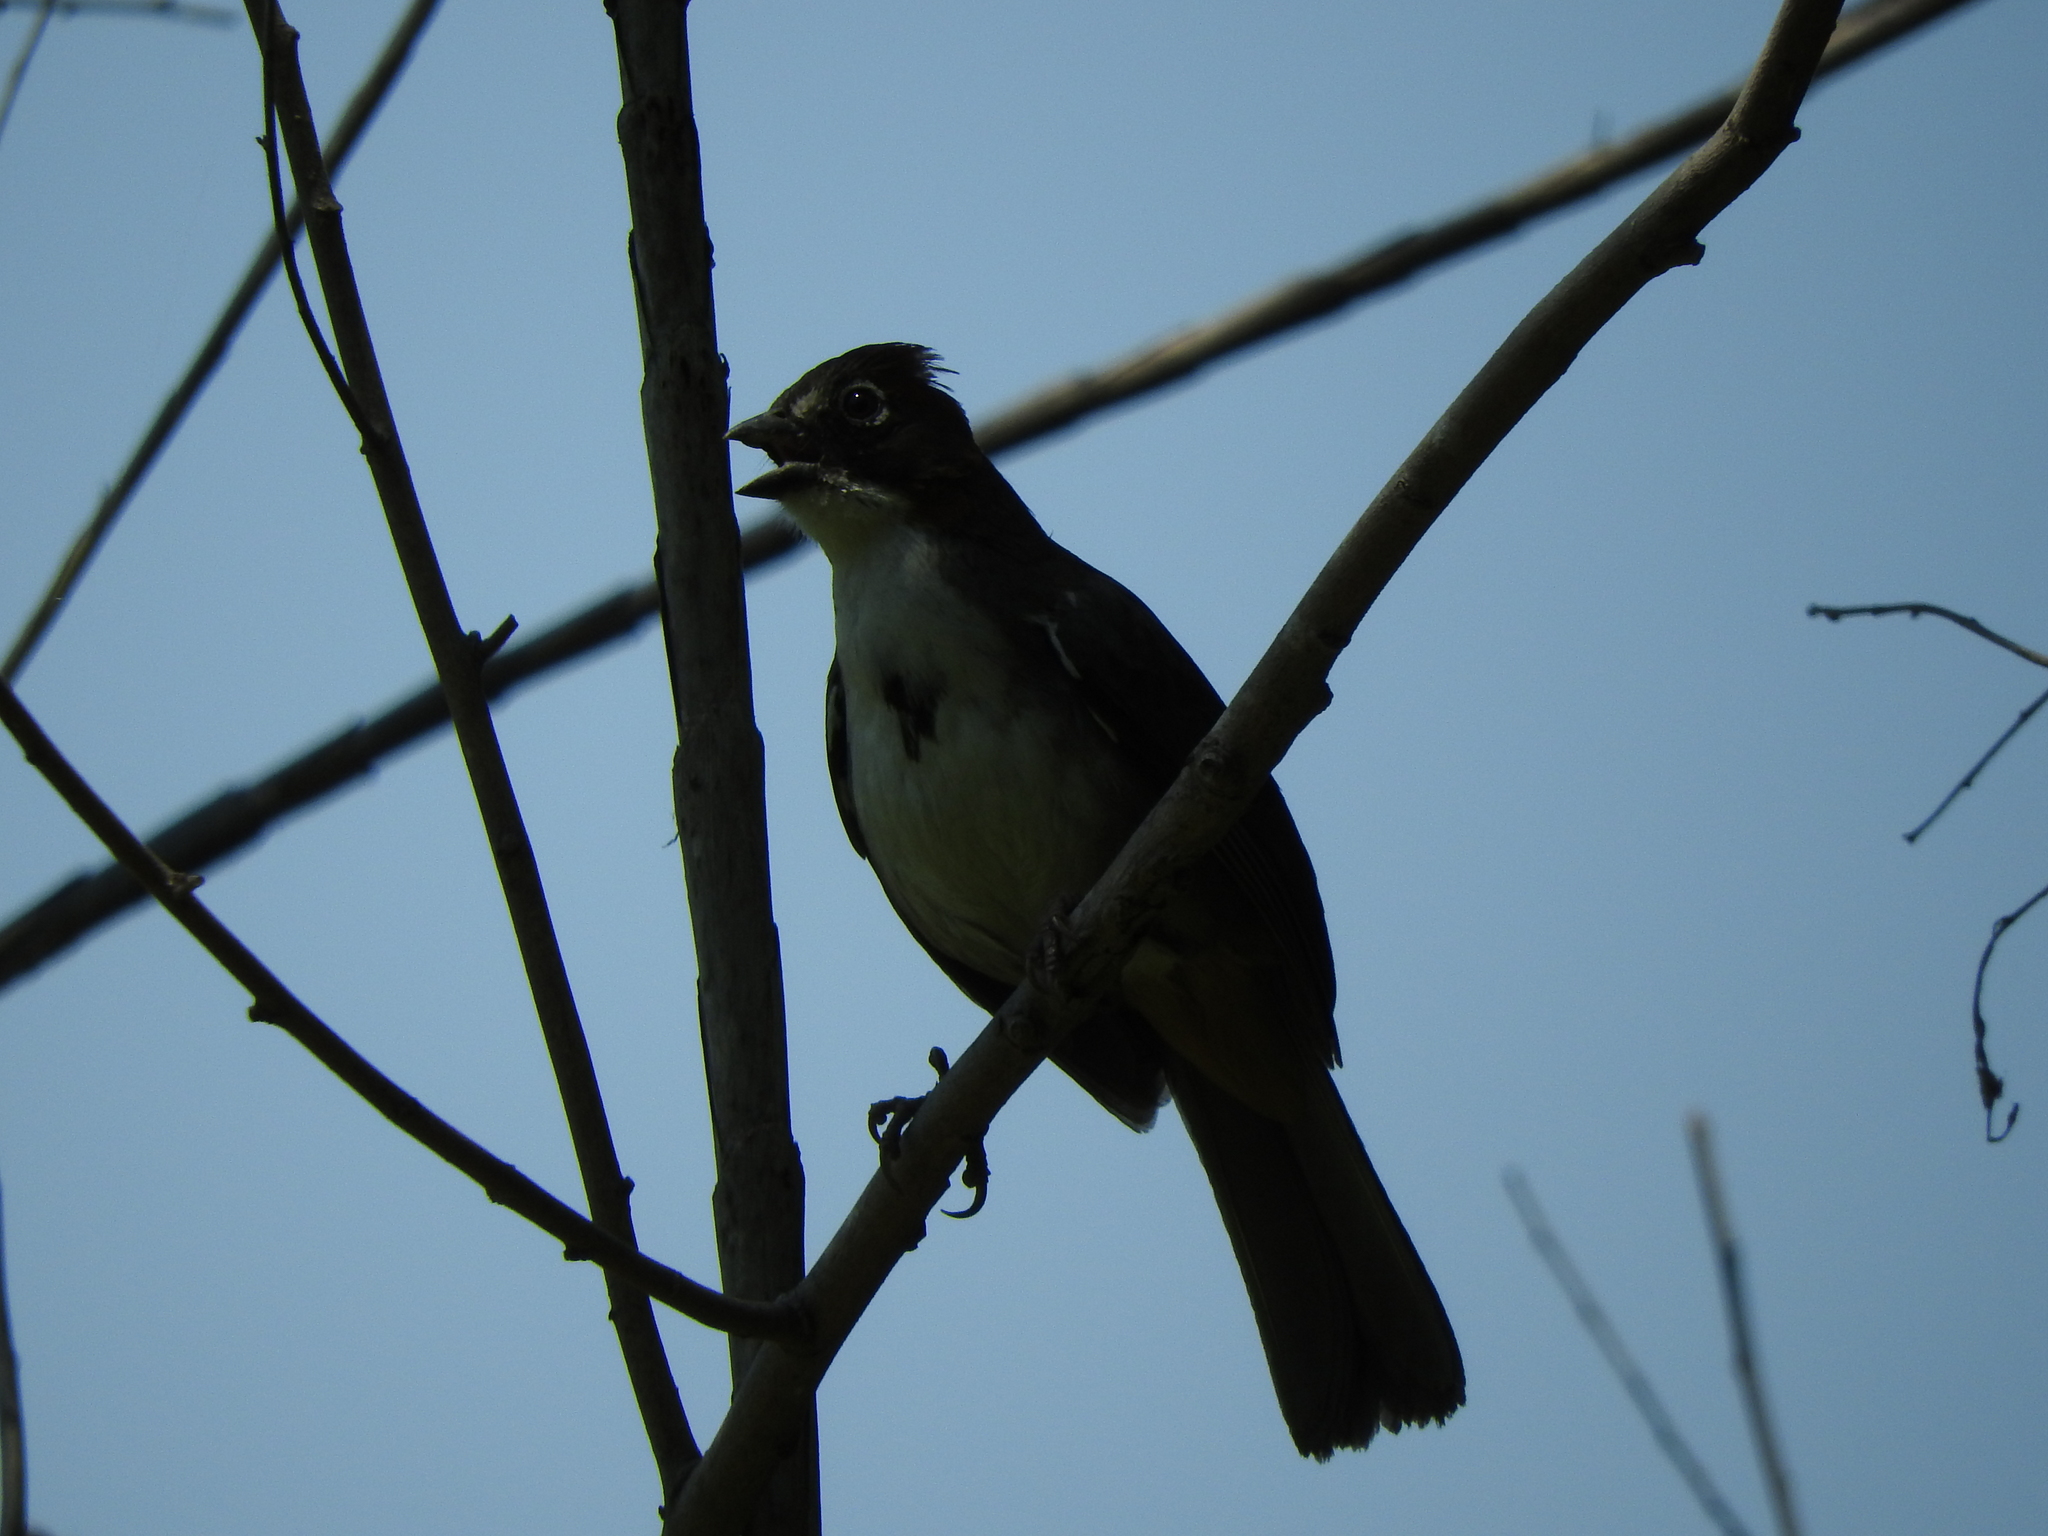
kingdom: Animalia
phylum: Chordata
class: Aves
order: Passeriformes
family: Passerellidae
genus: Melozone
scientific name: Melozone kieneri
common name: Rusty-crowned ground-sparrow
